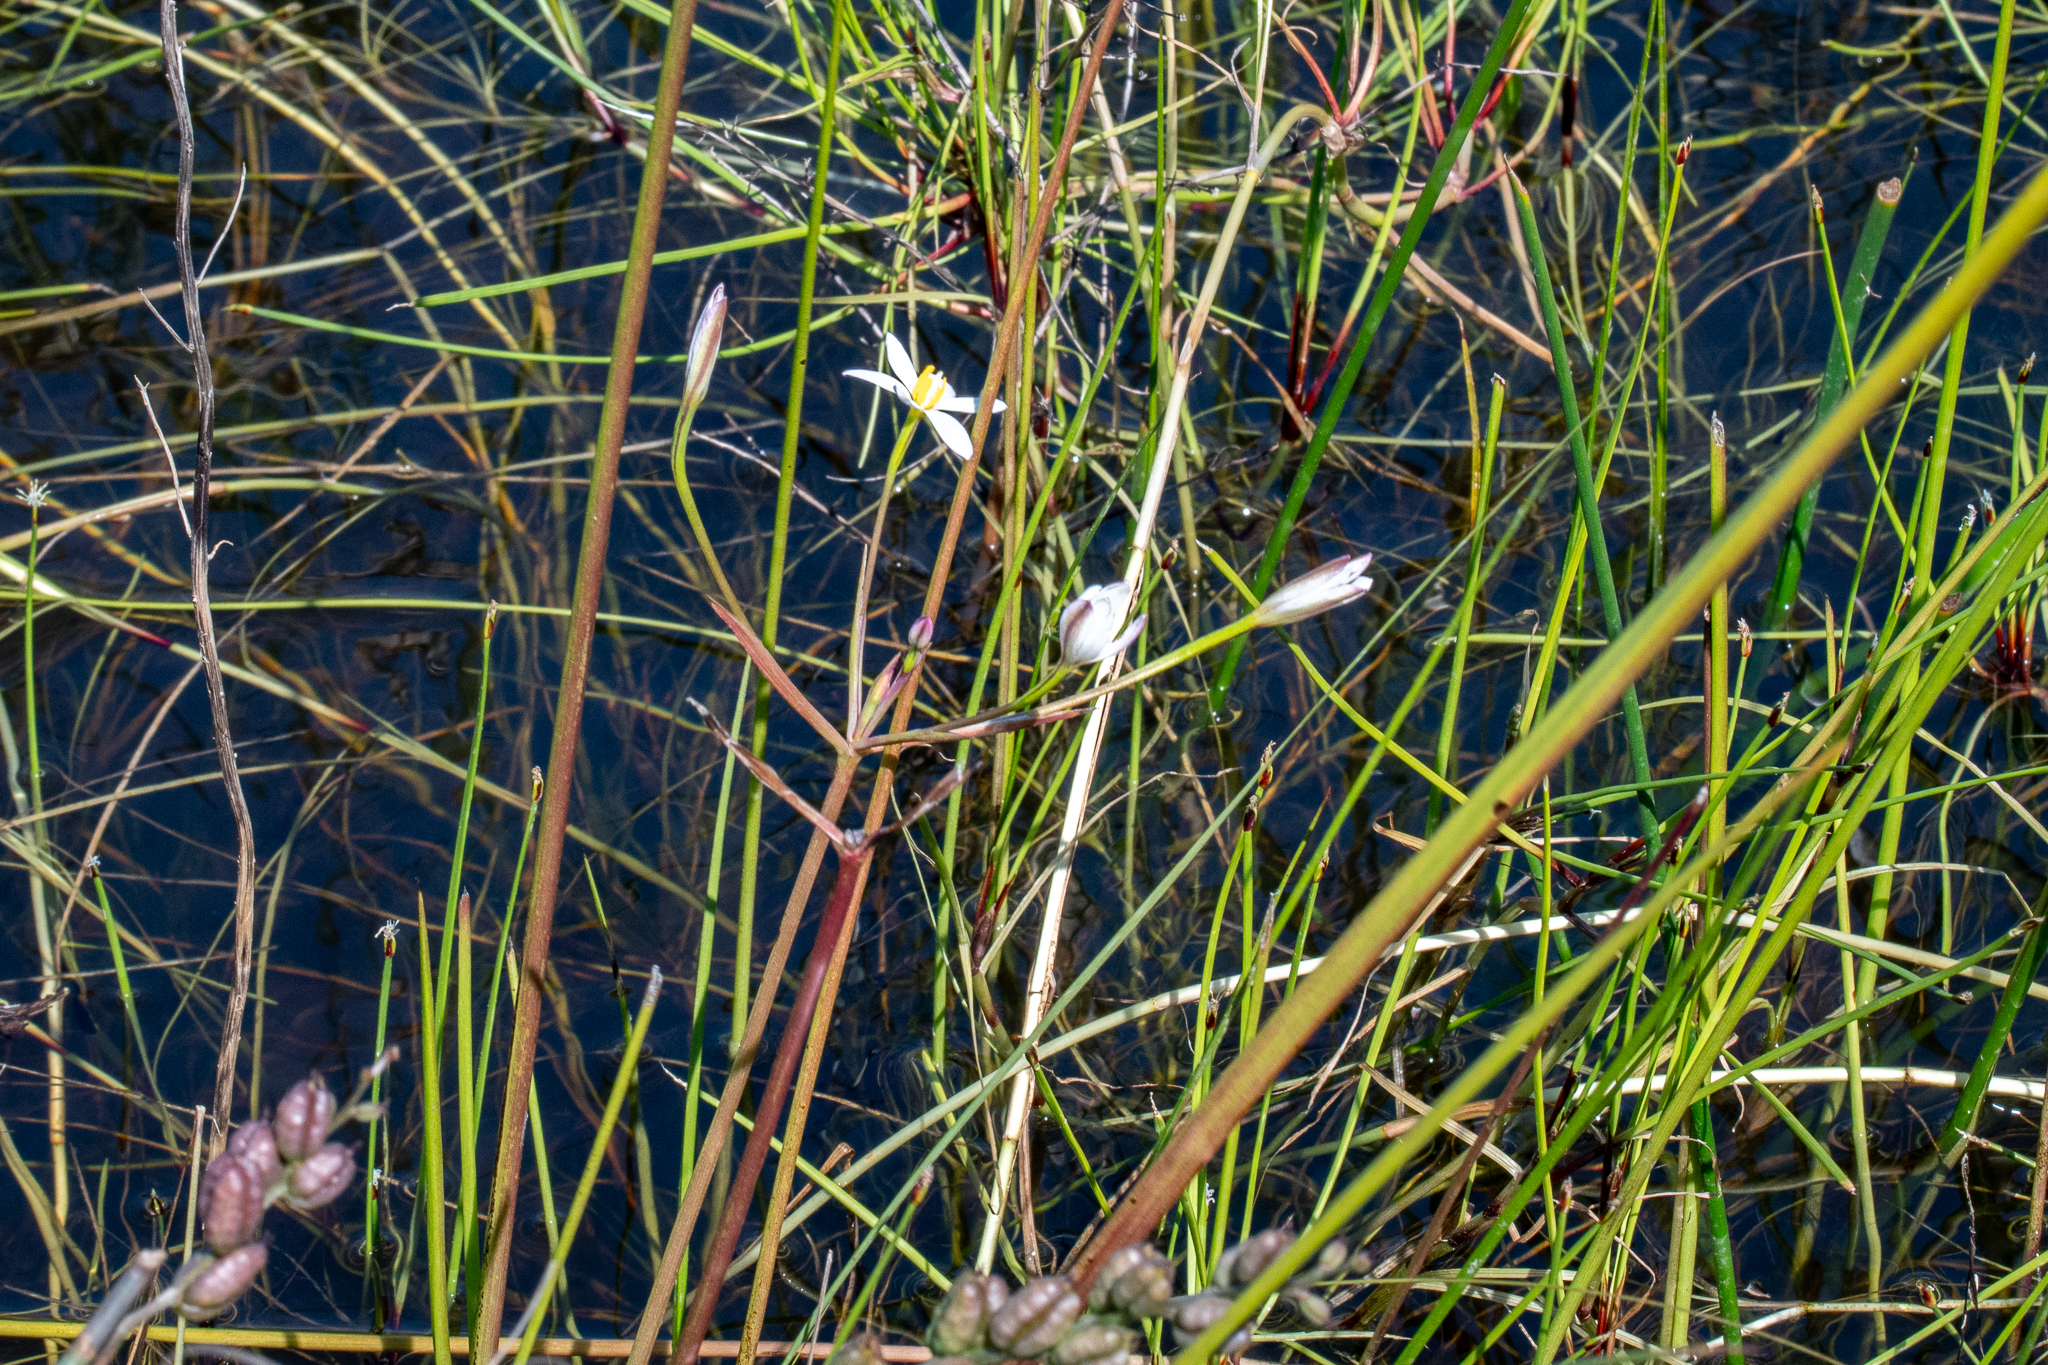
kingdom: Plantae
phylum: Tracheophyta
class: Liliopsida
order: Asparagales
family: Hypoxidaceae
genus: Pauridia
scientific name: Pauridia aquatica
